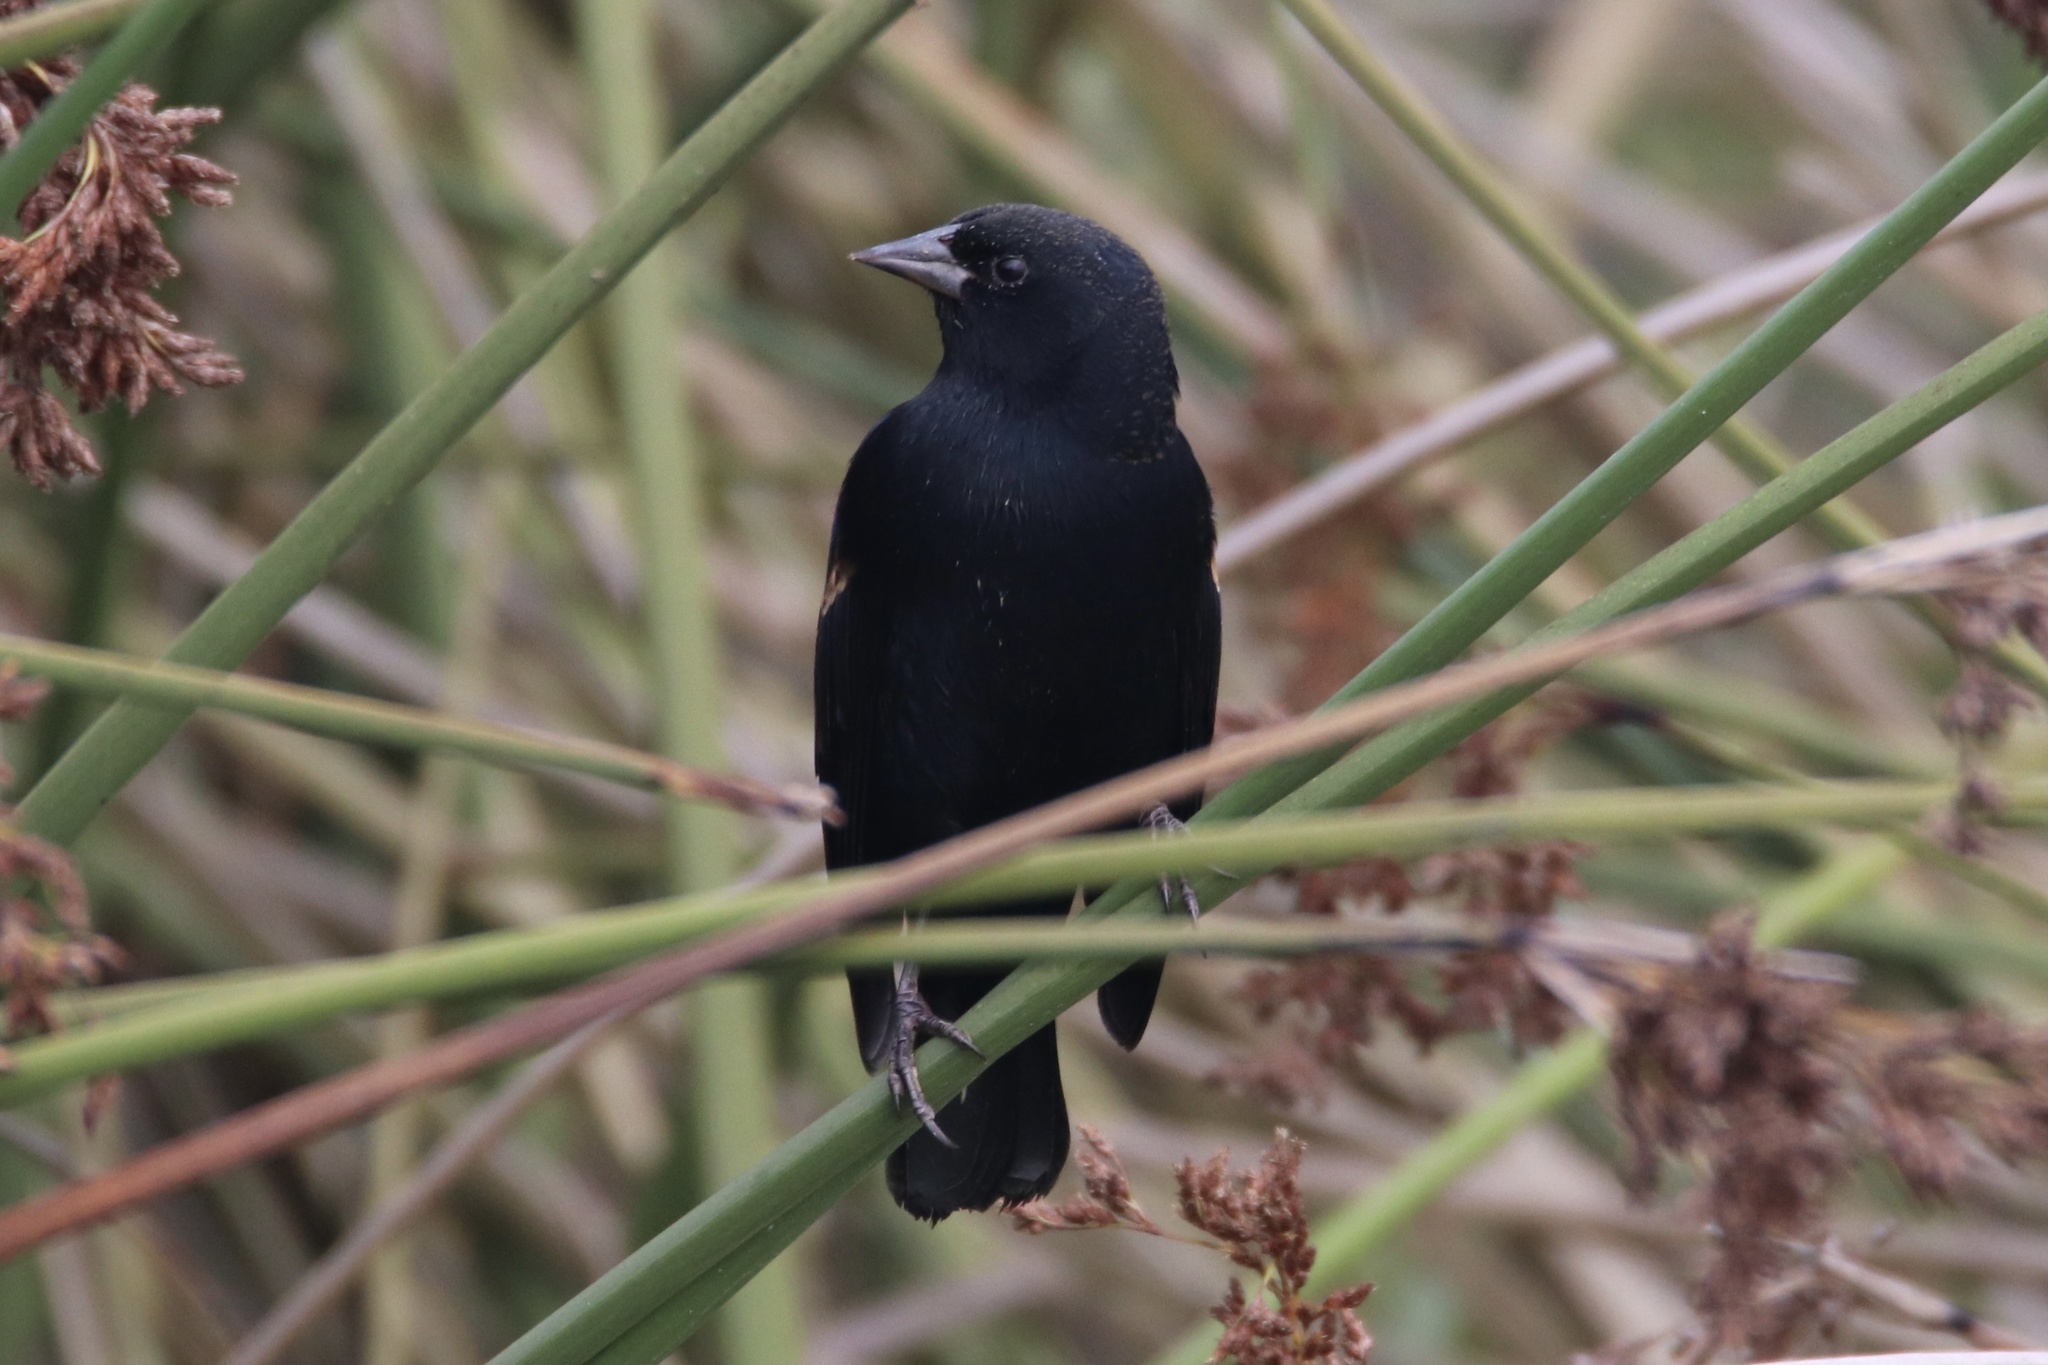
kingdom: Animalia
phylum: Chordata
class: Aves
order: Passeriformes
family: Icteridae
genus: Agelaius
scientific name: Agelaius phoeniceus
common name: Red-winged blackbird
